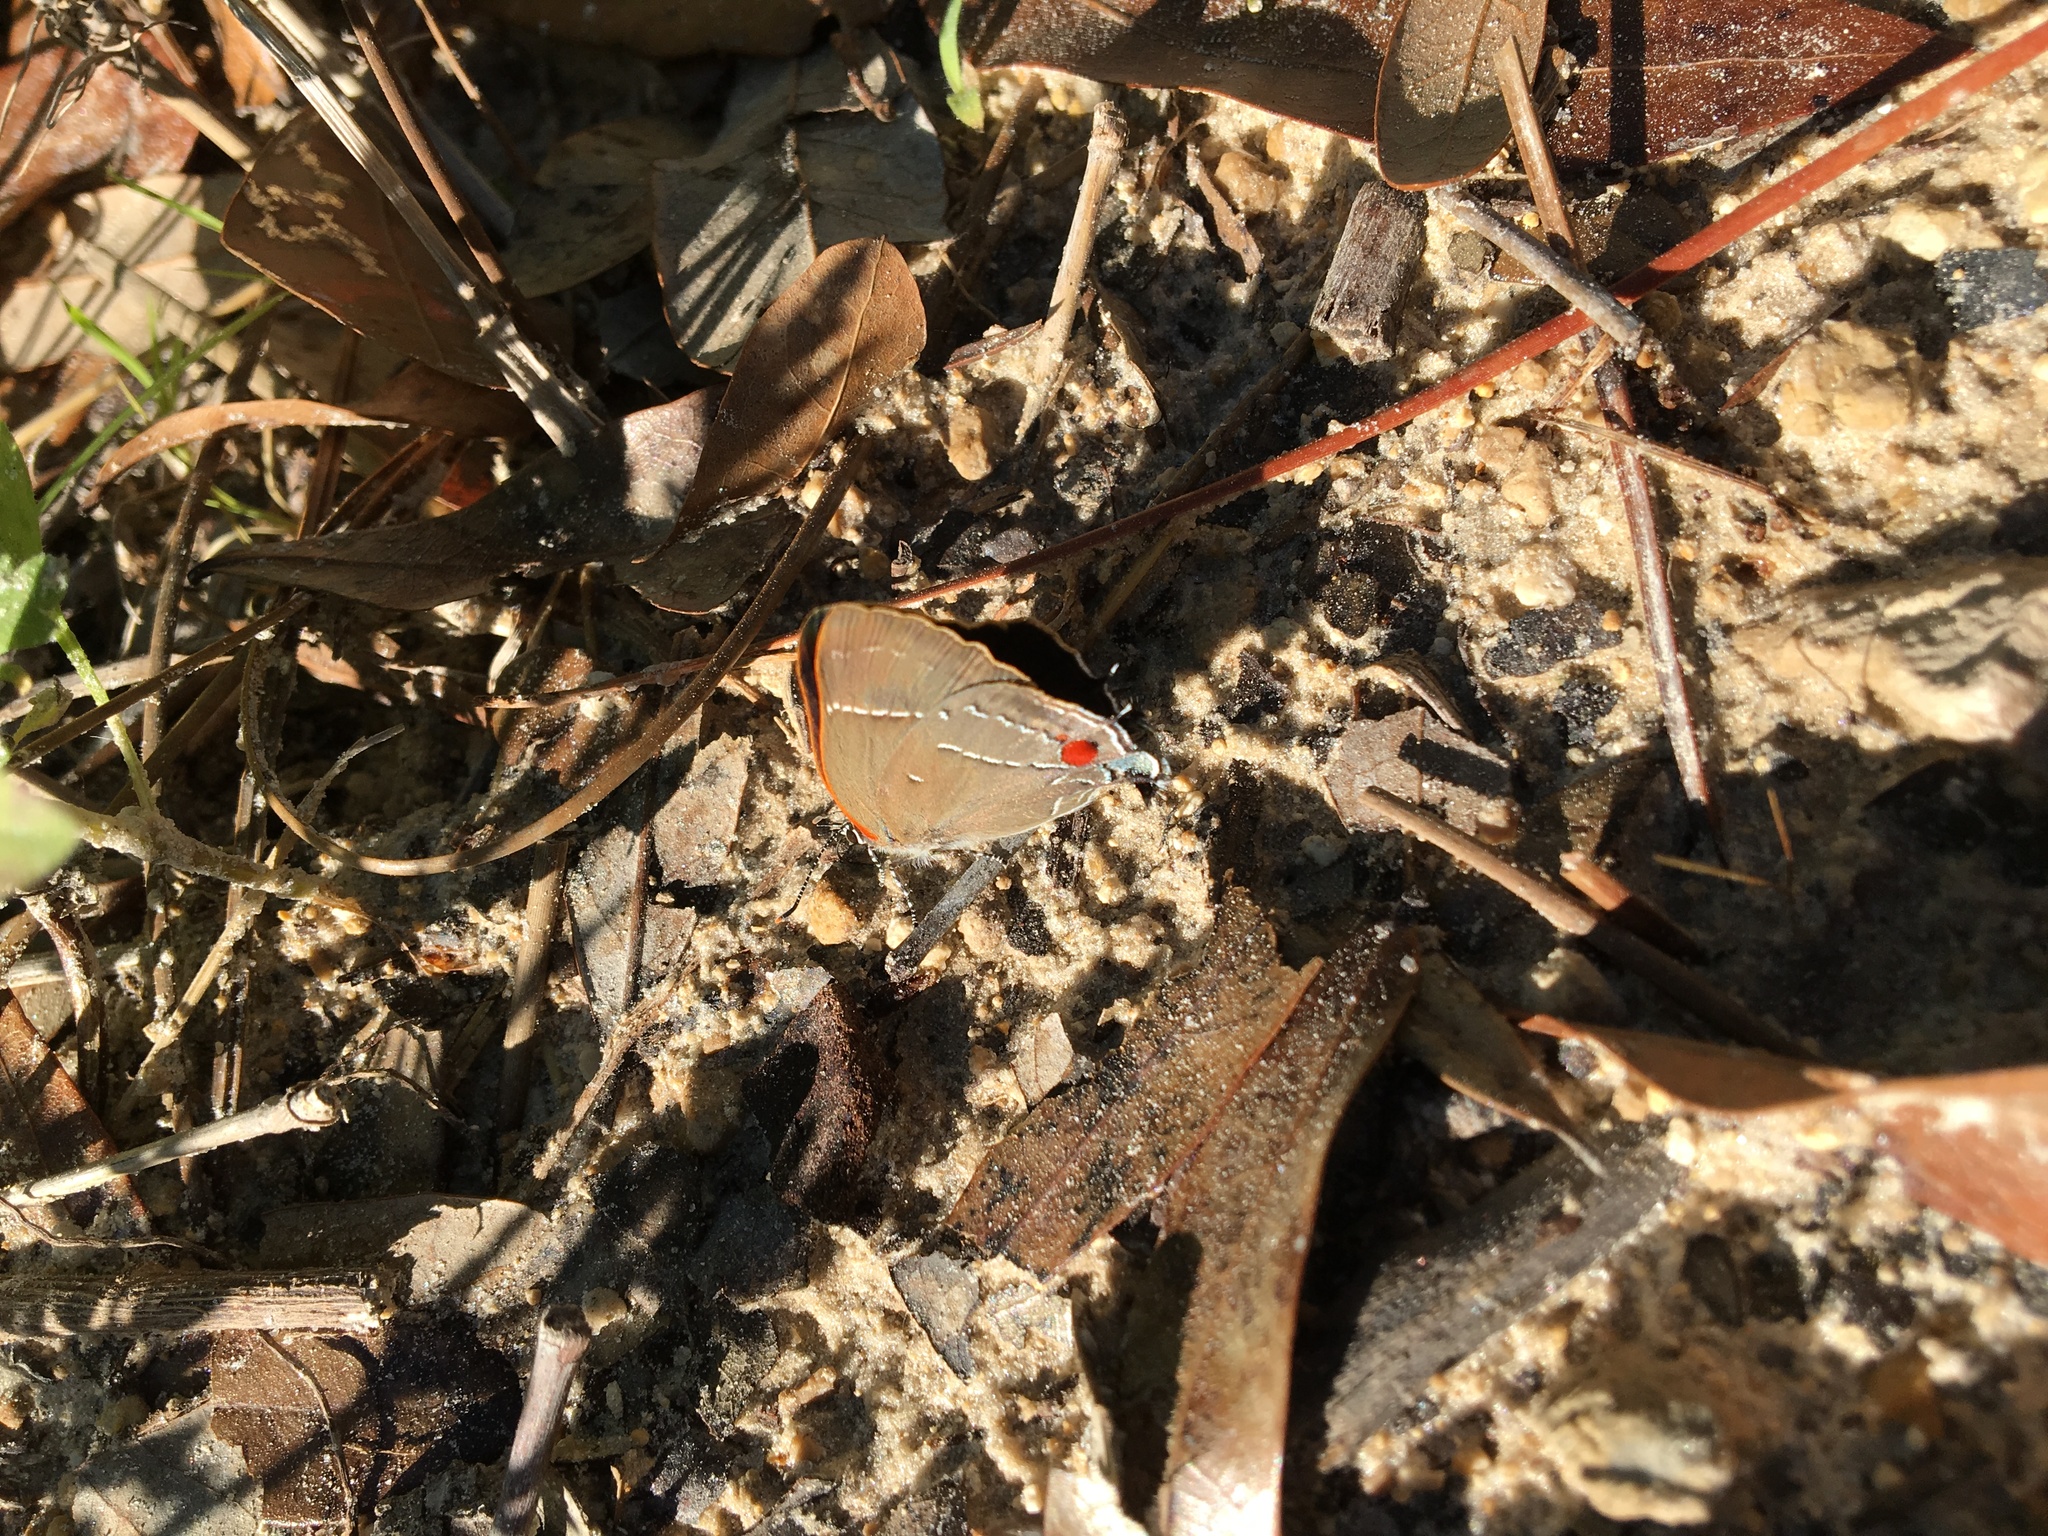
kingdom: Animalia
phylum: Arthropoda
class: Insecta
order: Lepidoptera
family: Lycaenidae
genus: Parrhasius
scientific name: Parrhasius m-album
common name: White m hairstreak
